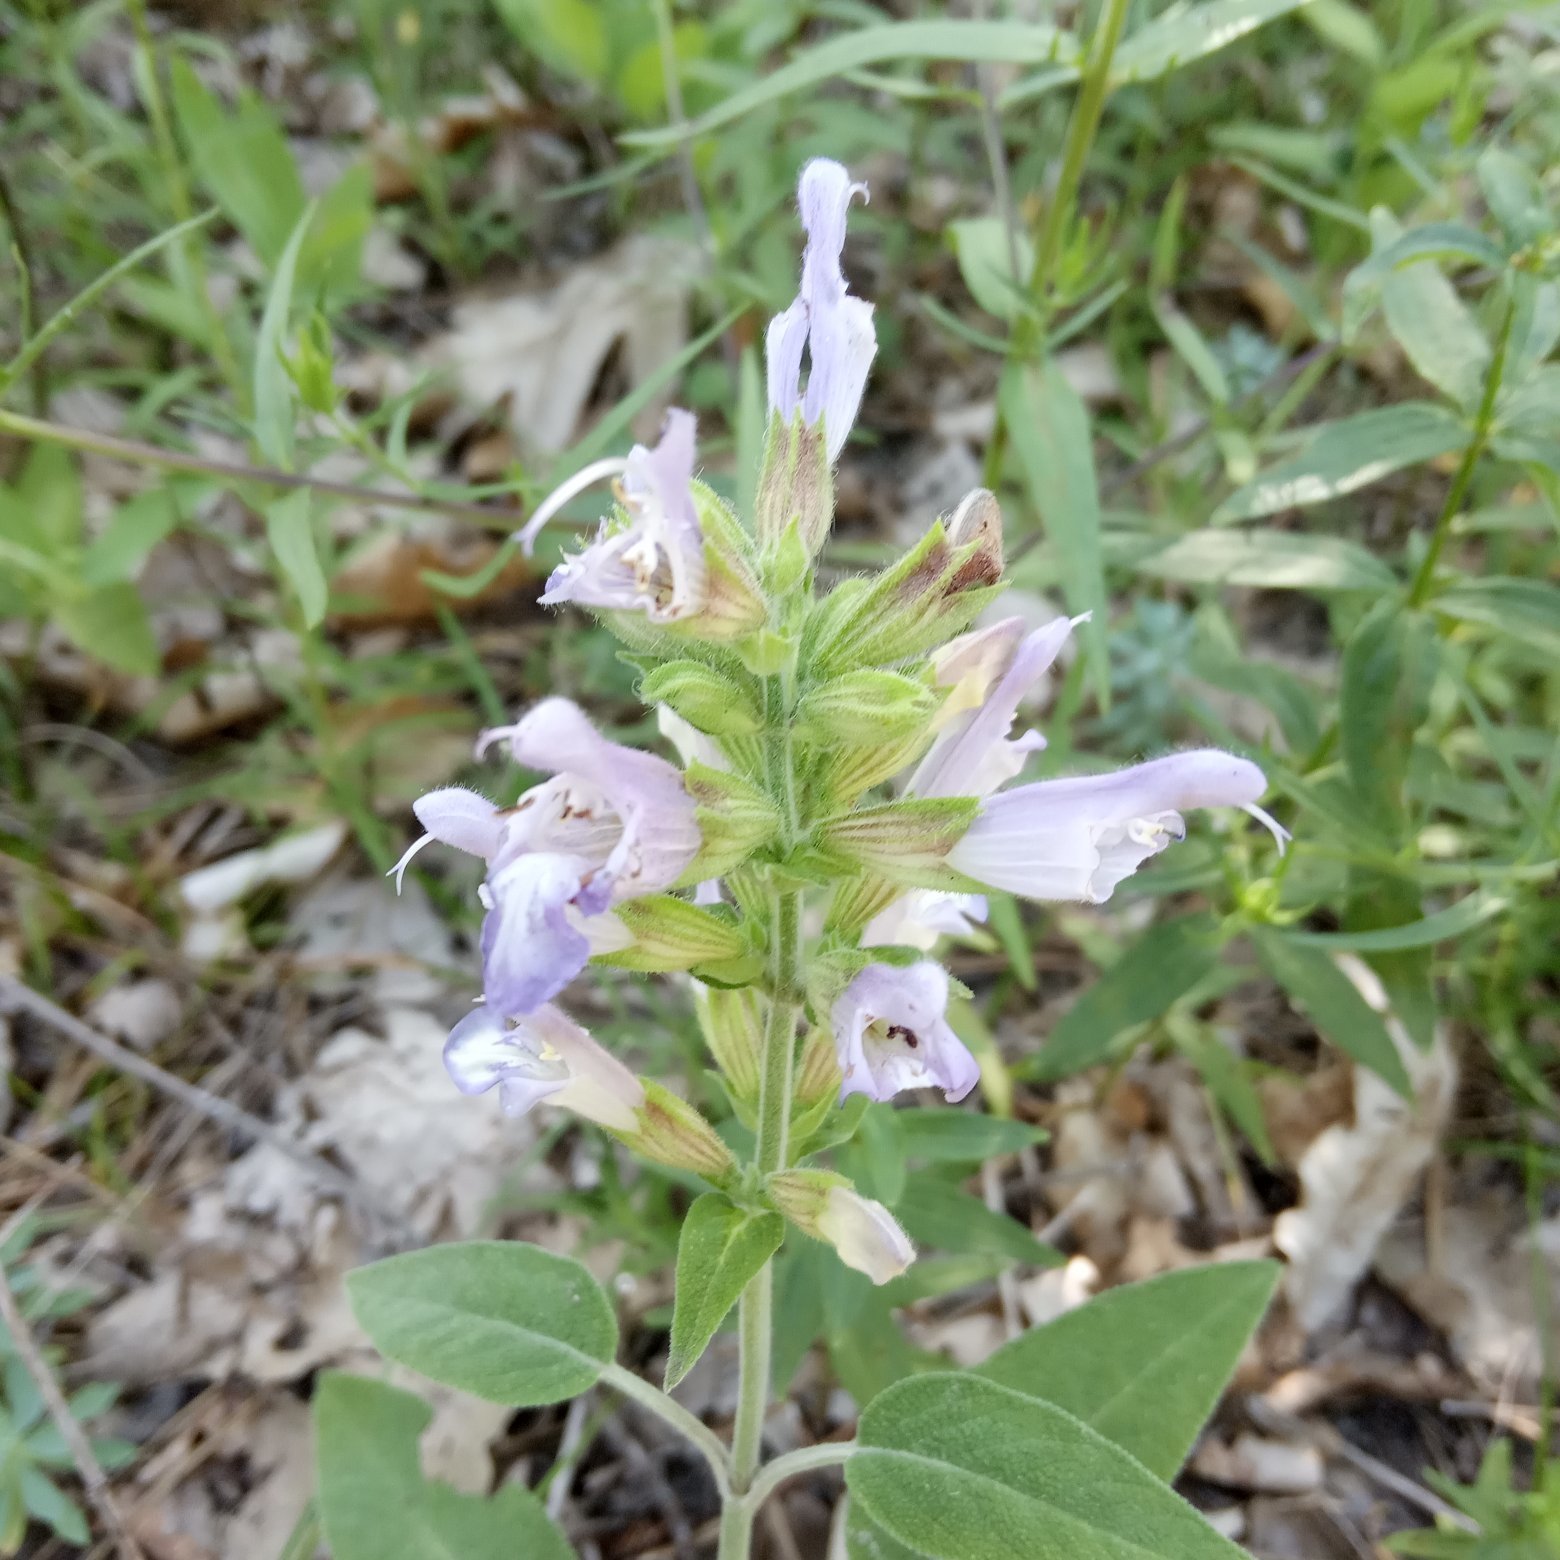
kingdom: Plantae
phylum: Tracheophyta
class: Magnoliopsida
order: Lamiales
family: Lamiaceae
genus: Salvia
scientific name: Salvia tomentosa
